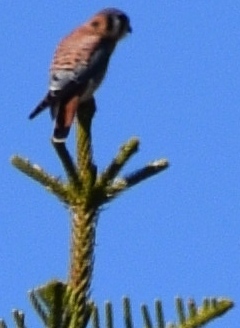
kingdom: Animalia
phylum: Chordata
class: Aves
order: Falconiformes
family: Falconidae
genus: Falco
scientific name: Falco sparverius
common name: American kestrel
